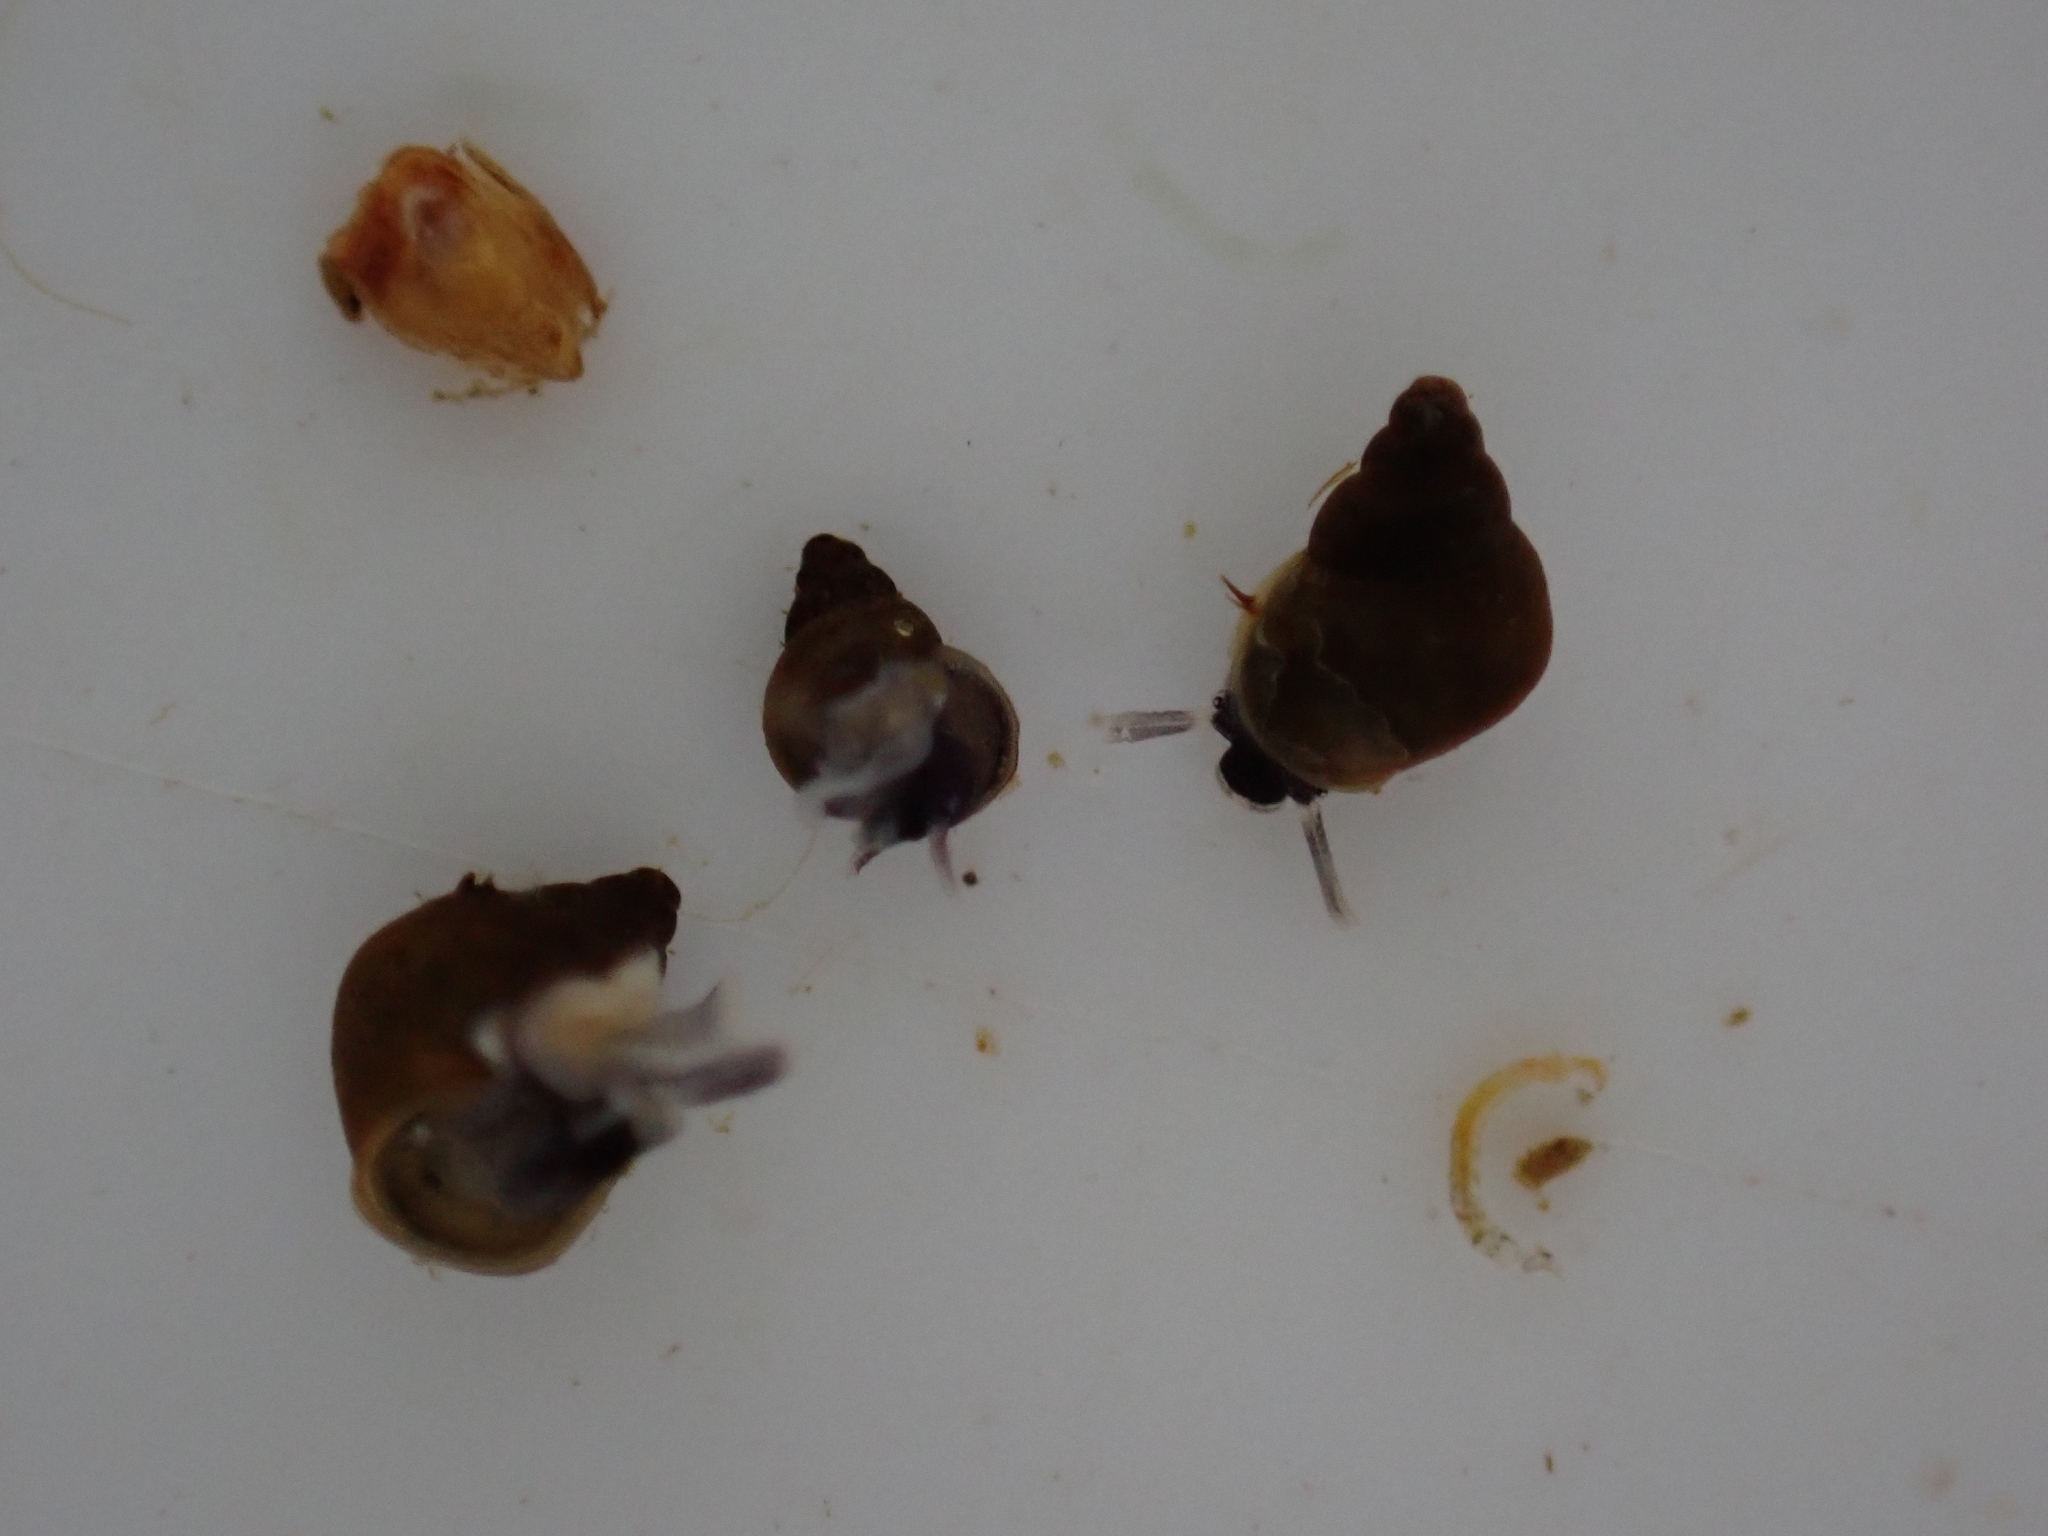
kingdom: Animalia
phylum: Mollusca
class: Gastropoda
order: Littorinimorpha
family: Tateidae
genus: Potamopyrgus
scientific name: Potamopyrgus antipodarum
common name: Jenkins' spire snail
